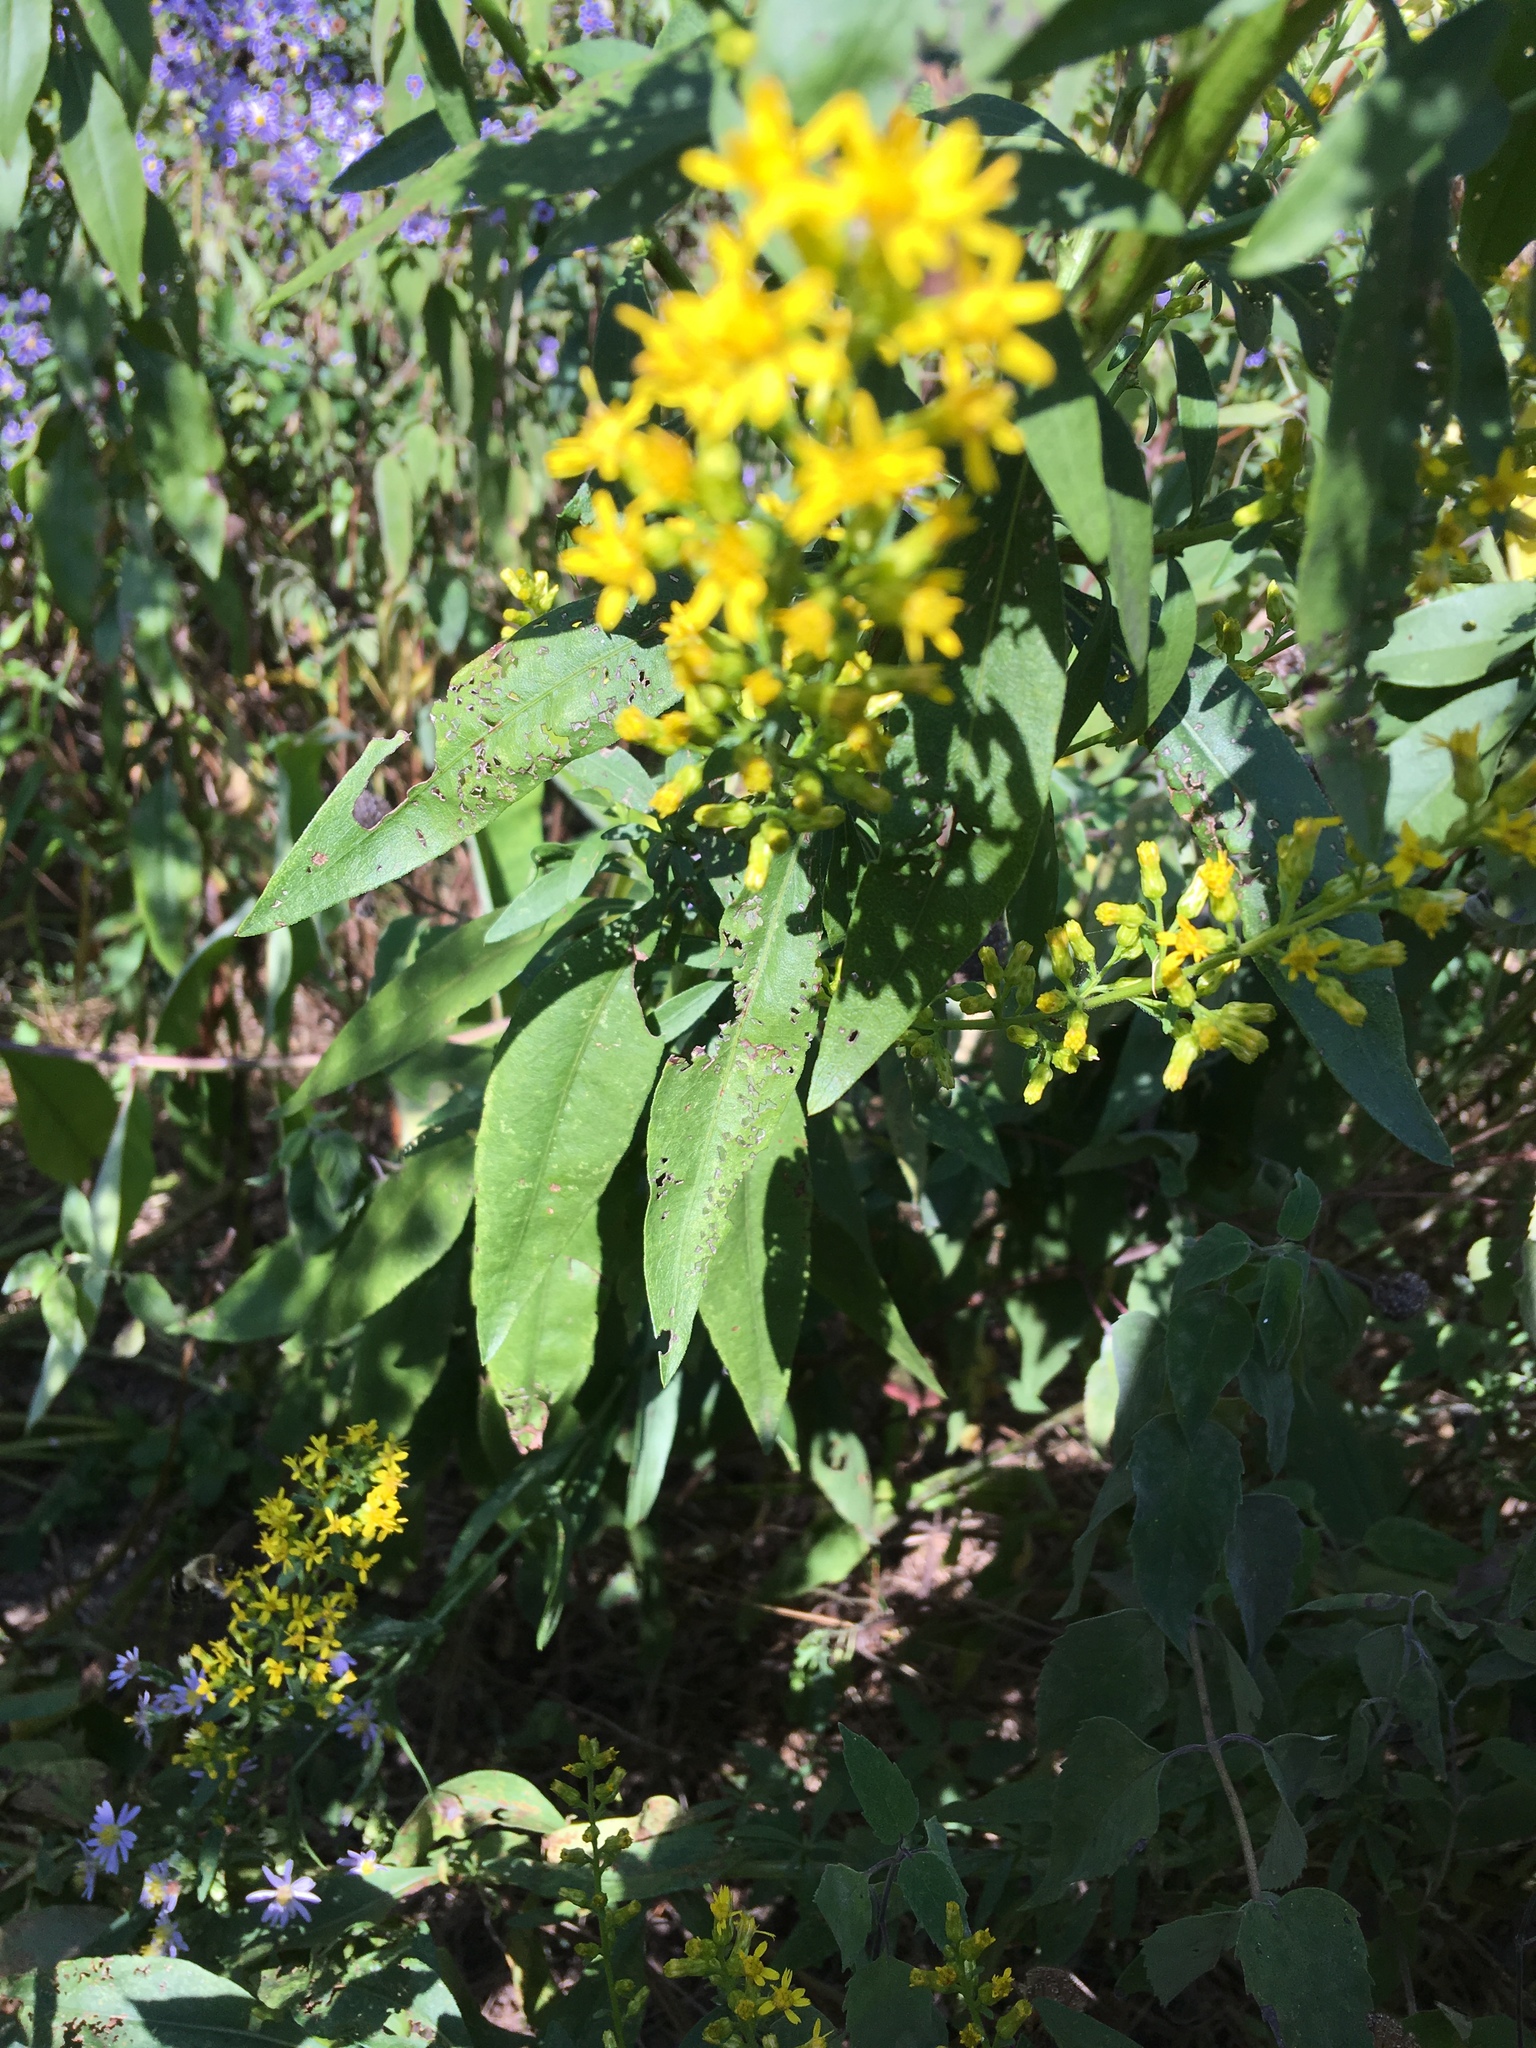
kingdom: Plantae
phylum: Tracheophyta
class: Magnoliopsida
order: Asterales
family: Asteraceae
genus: Solidago
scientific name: Solidago speciosa
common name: Showy goldenrod
